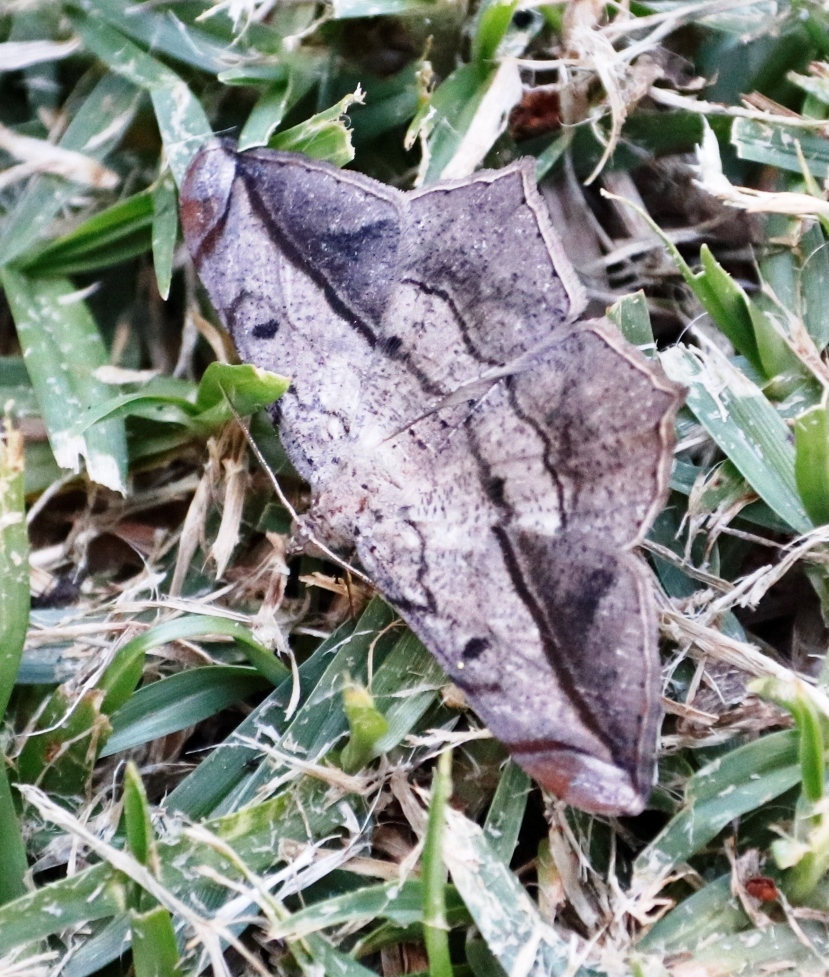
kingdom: Animalia
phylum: Arthropoda
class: Insecta
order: Lepidoptera
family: Geometridae
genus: Chiasmia
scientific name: Chiasmia simplicilinea
